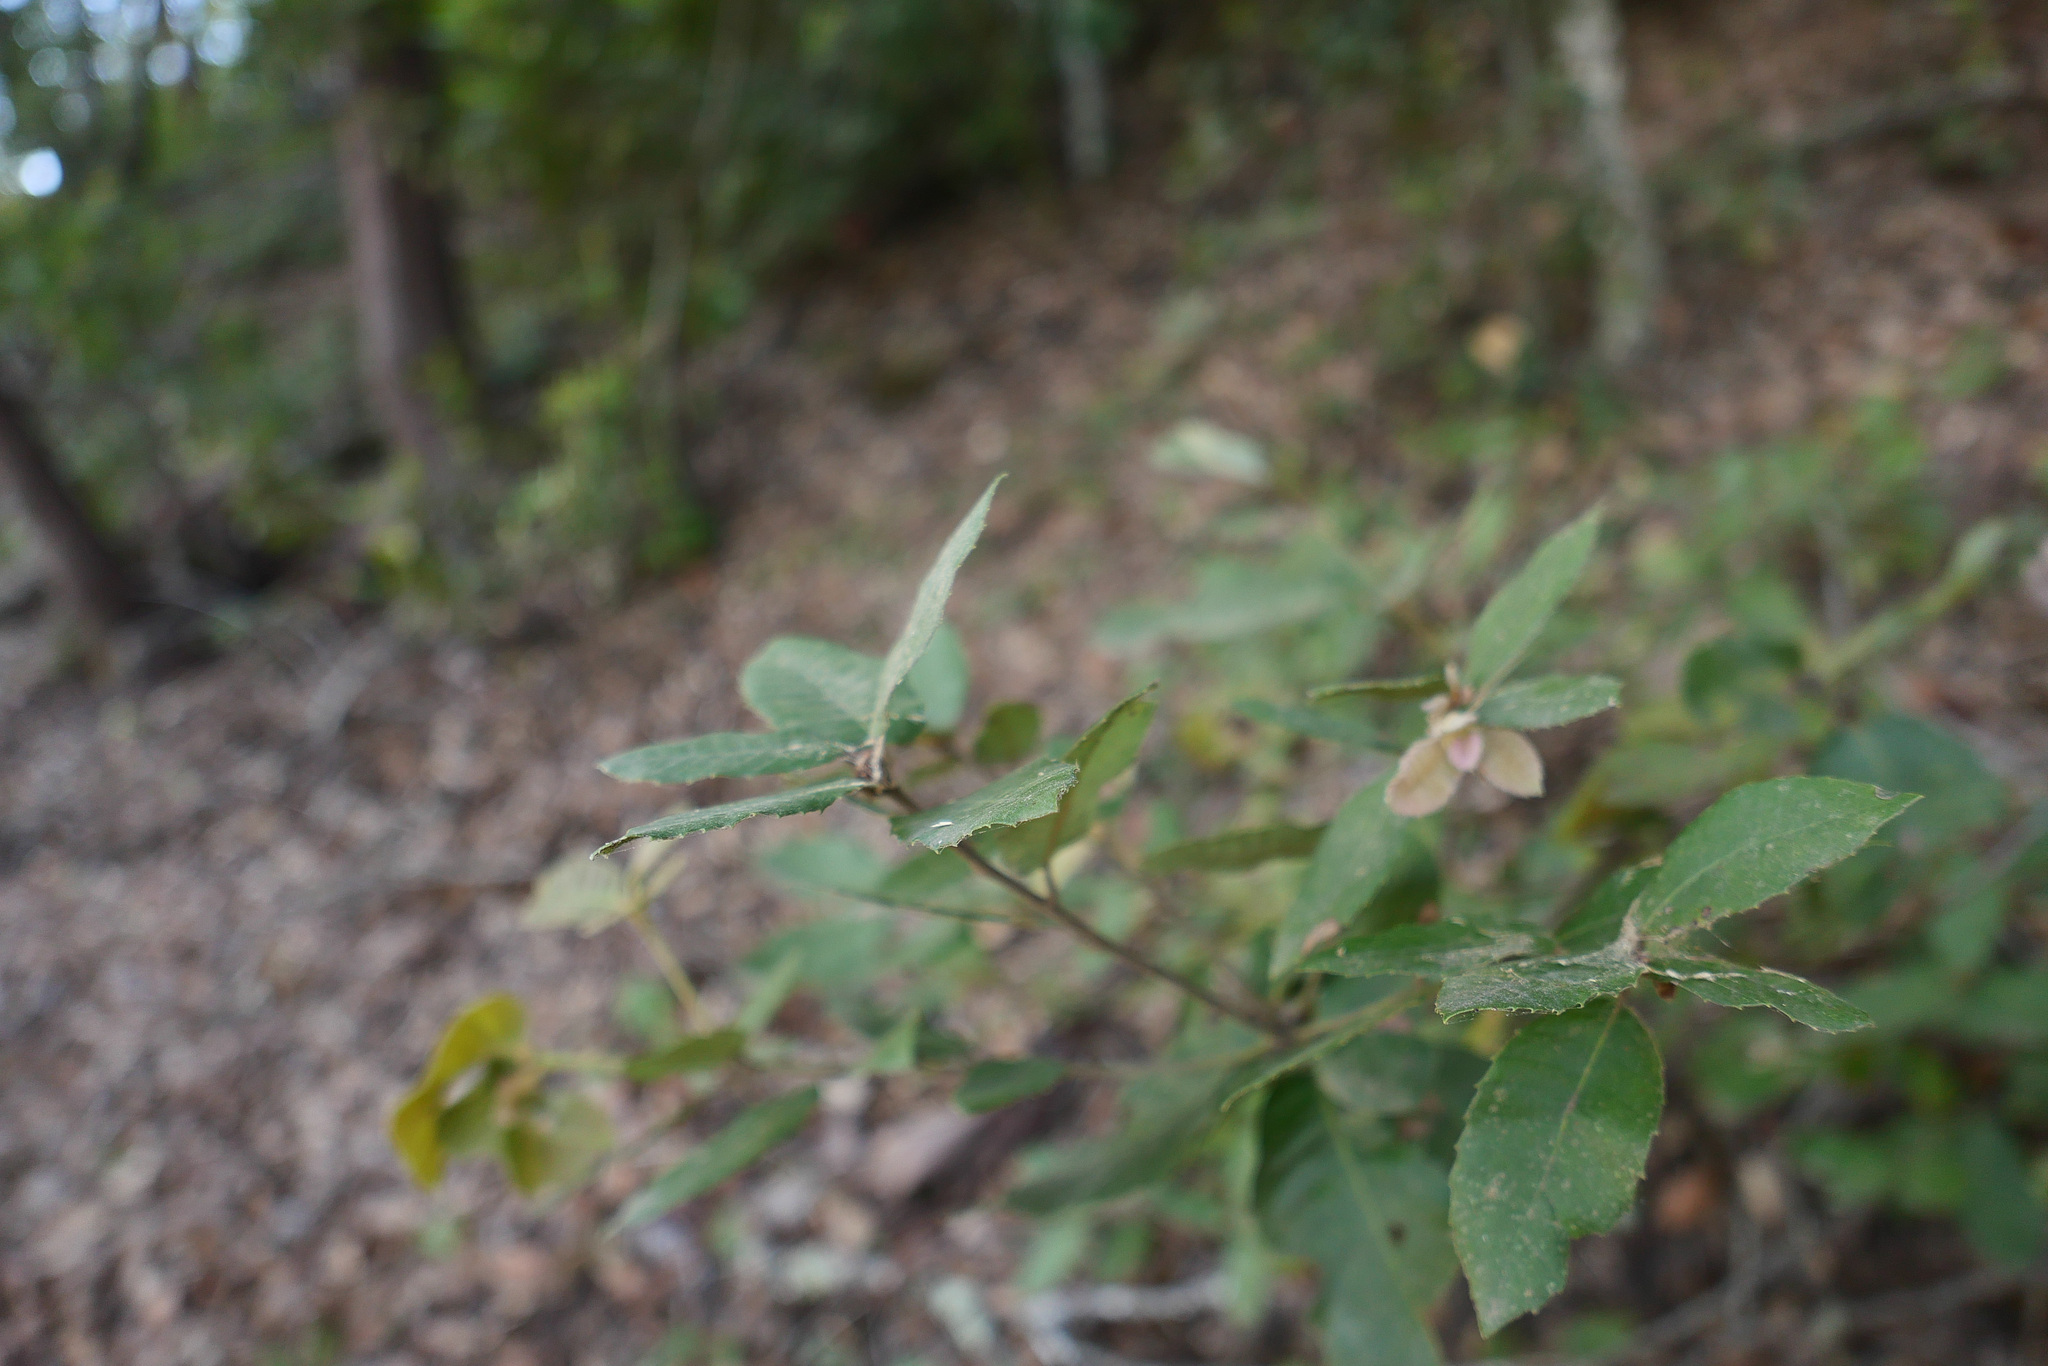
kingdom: Plantae
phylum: Tracheophyta
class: Magnoliopsida
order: Fagales
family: Fagaceae
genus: Notholithocarpus
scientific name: Notholithocarpus densiflorus
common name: Tan bark oak
